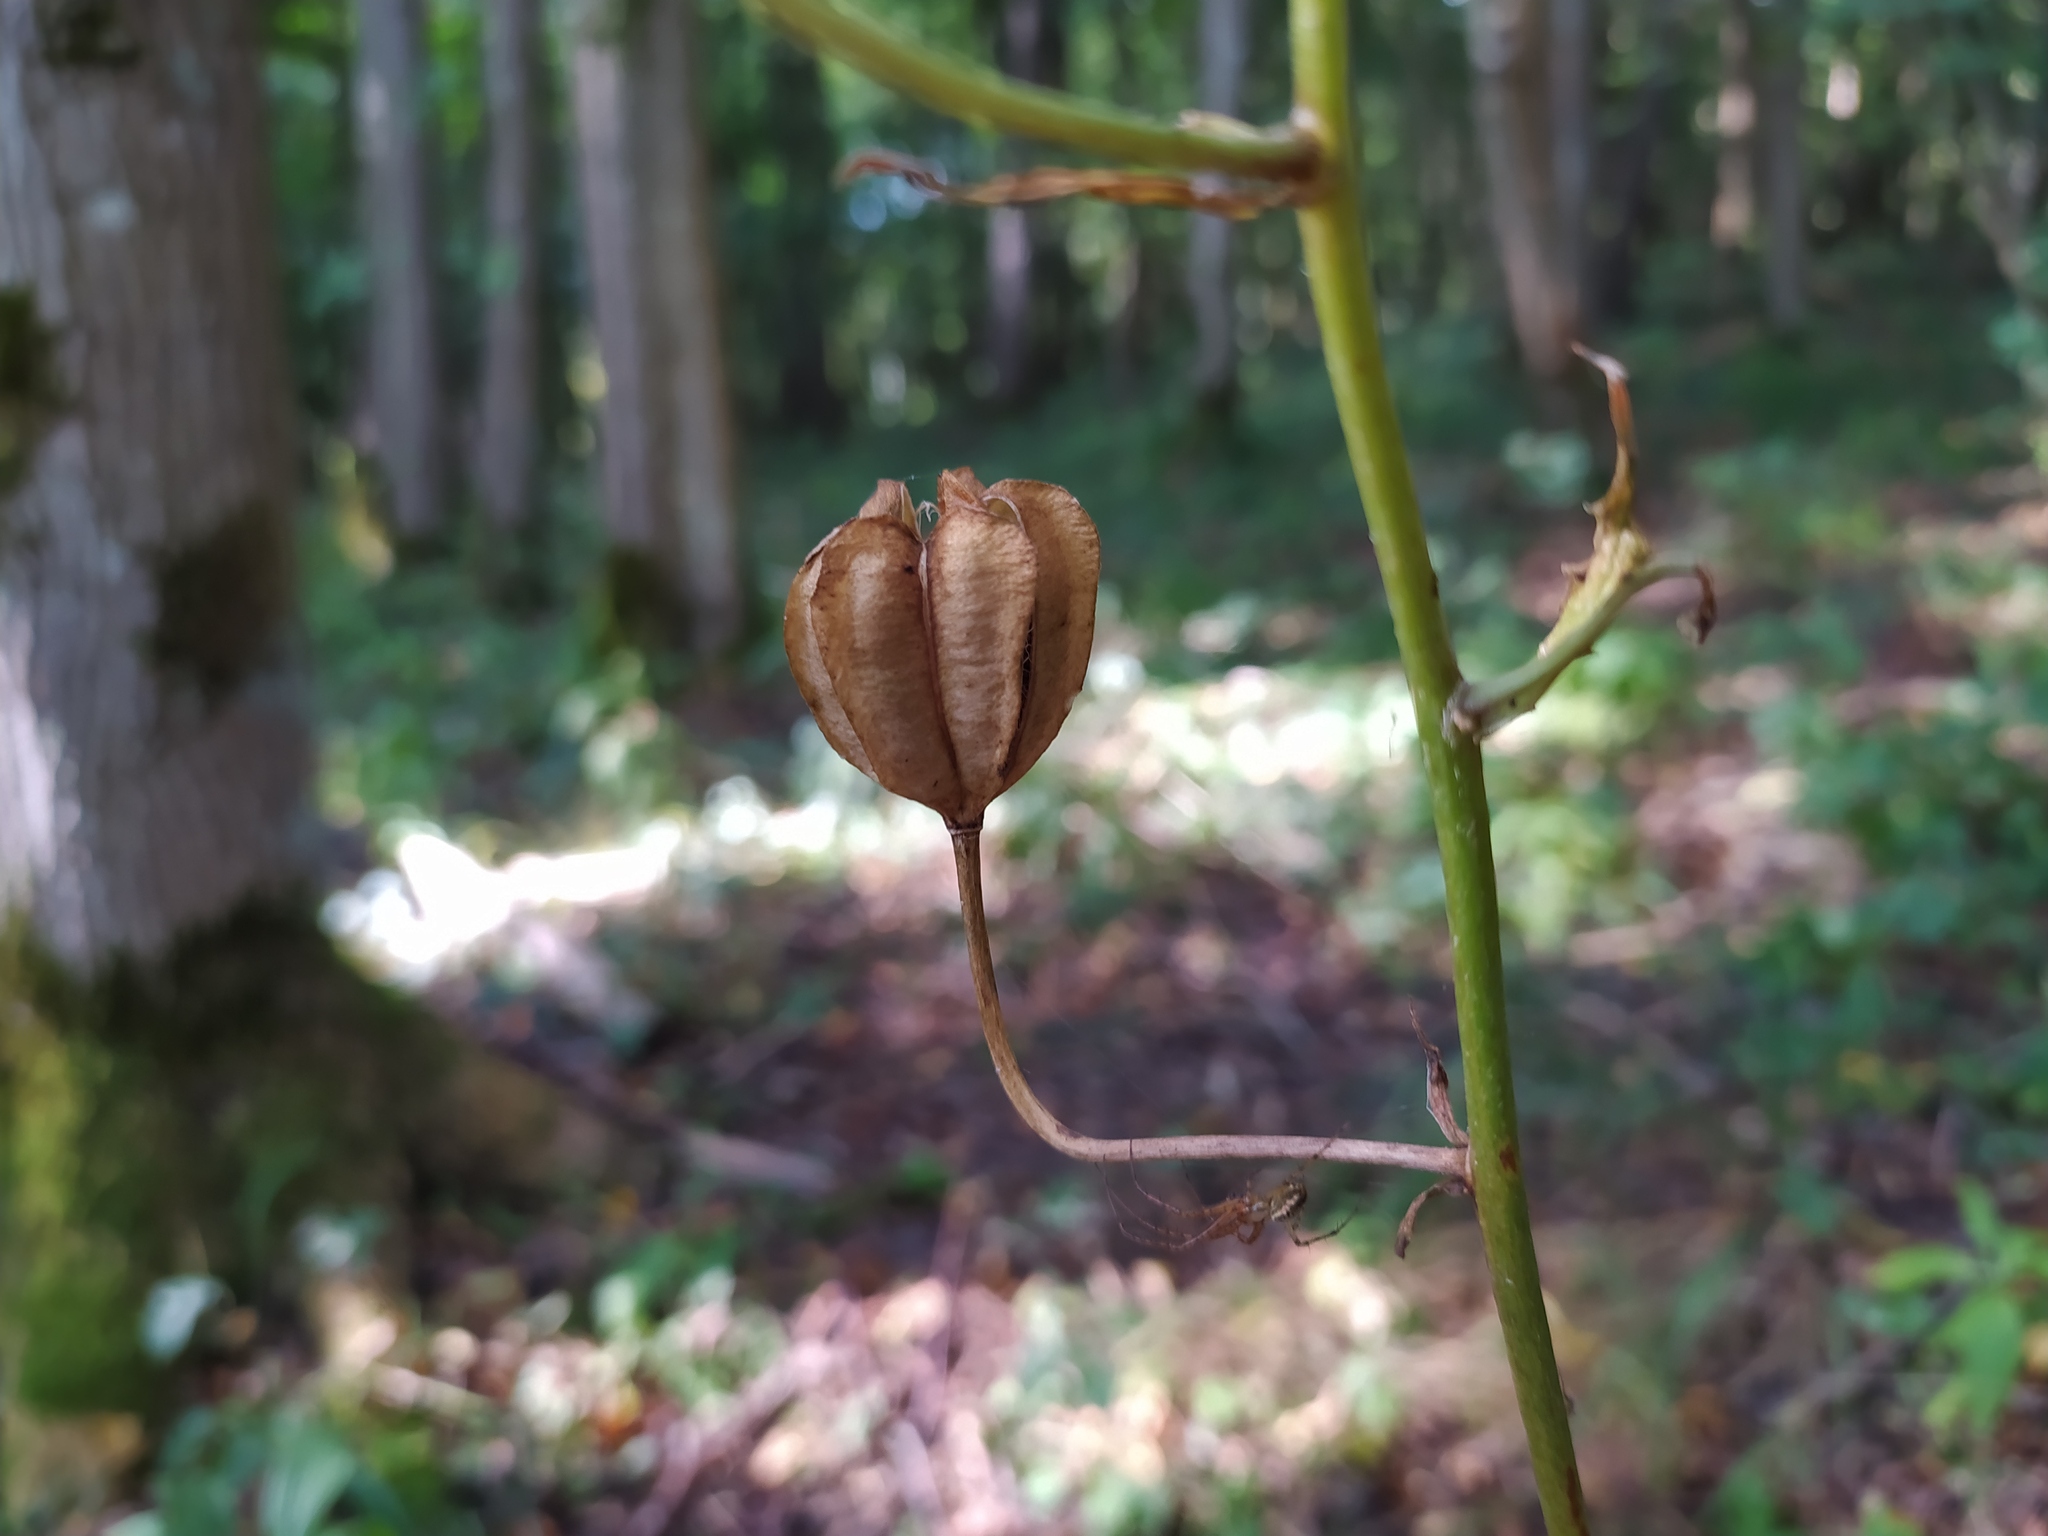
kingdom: Plantae
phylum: Tracheophyta
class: Liliopsida
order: Liliales
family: Liliaceae
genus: Lilium
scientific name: Lilium martagon
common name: Martagon lily
